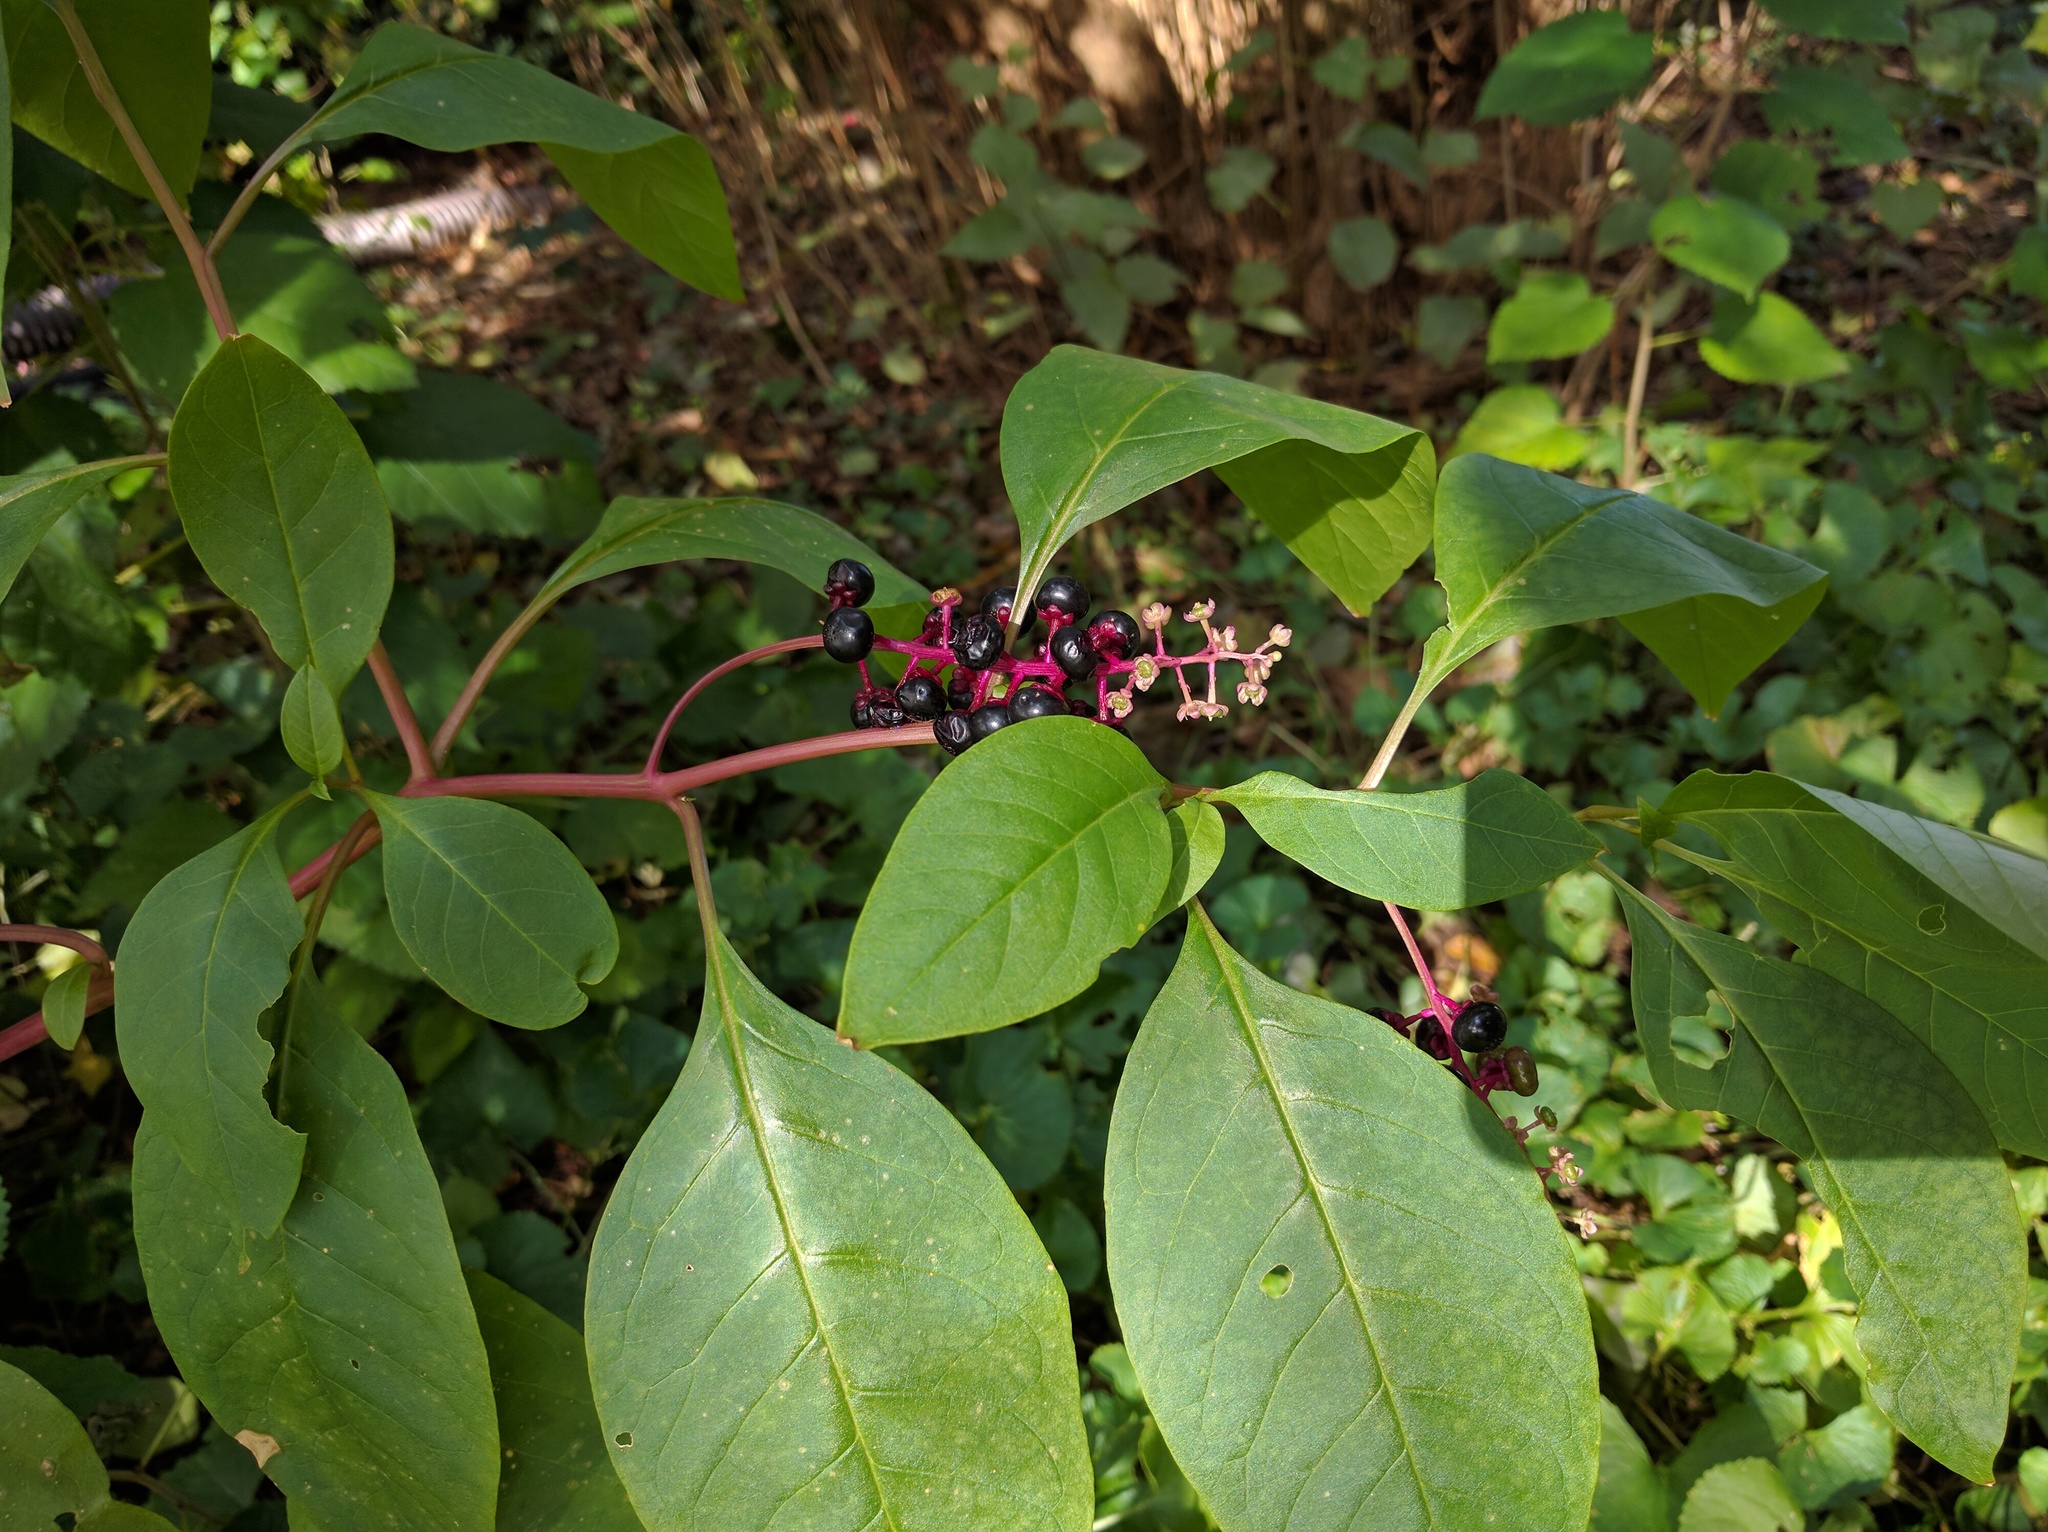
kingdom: Plantae
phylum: Tracheophyta
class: Magnoliopsida
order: Caryophyllales
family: Phytolaccaceae
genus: Phytolacca
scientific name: Phytolacca americana
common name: American pokeweed
